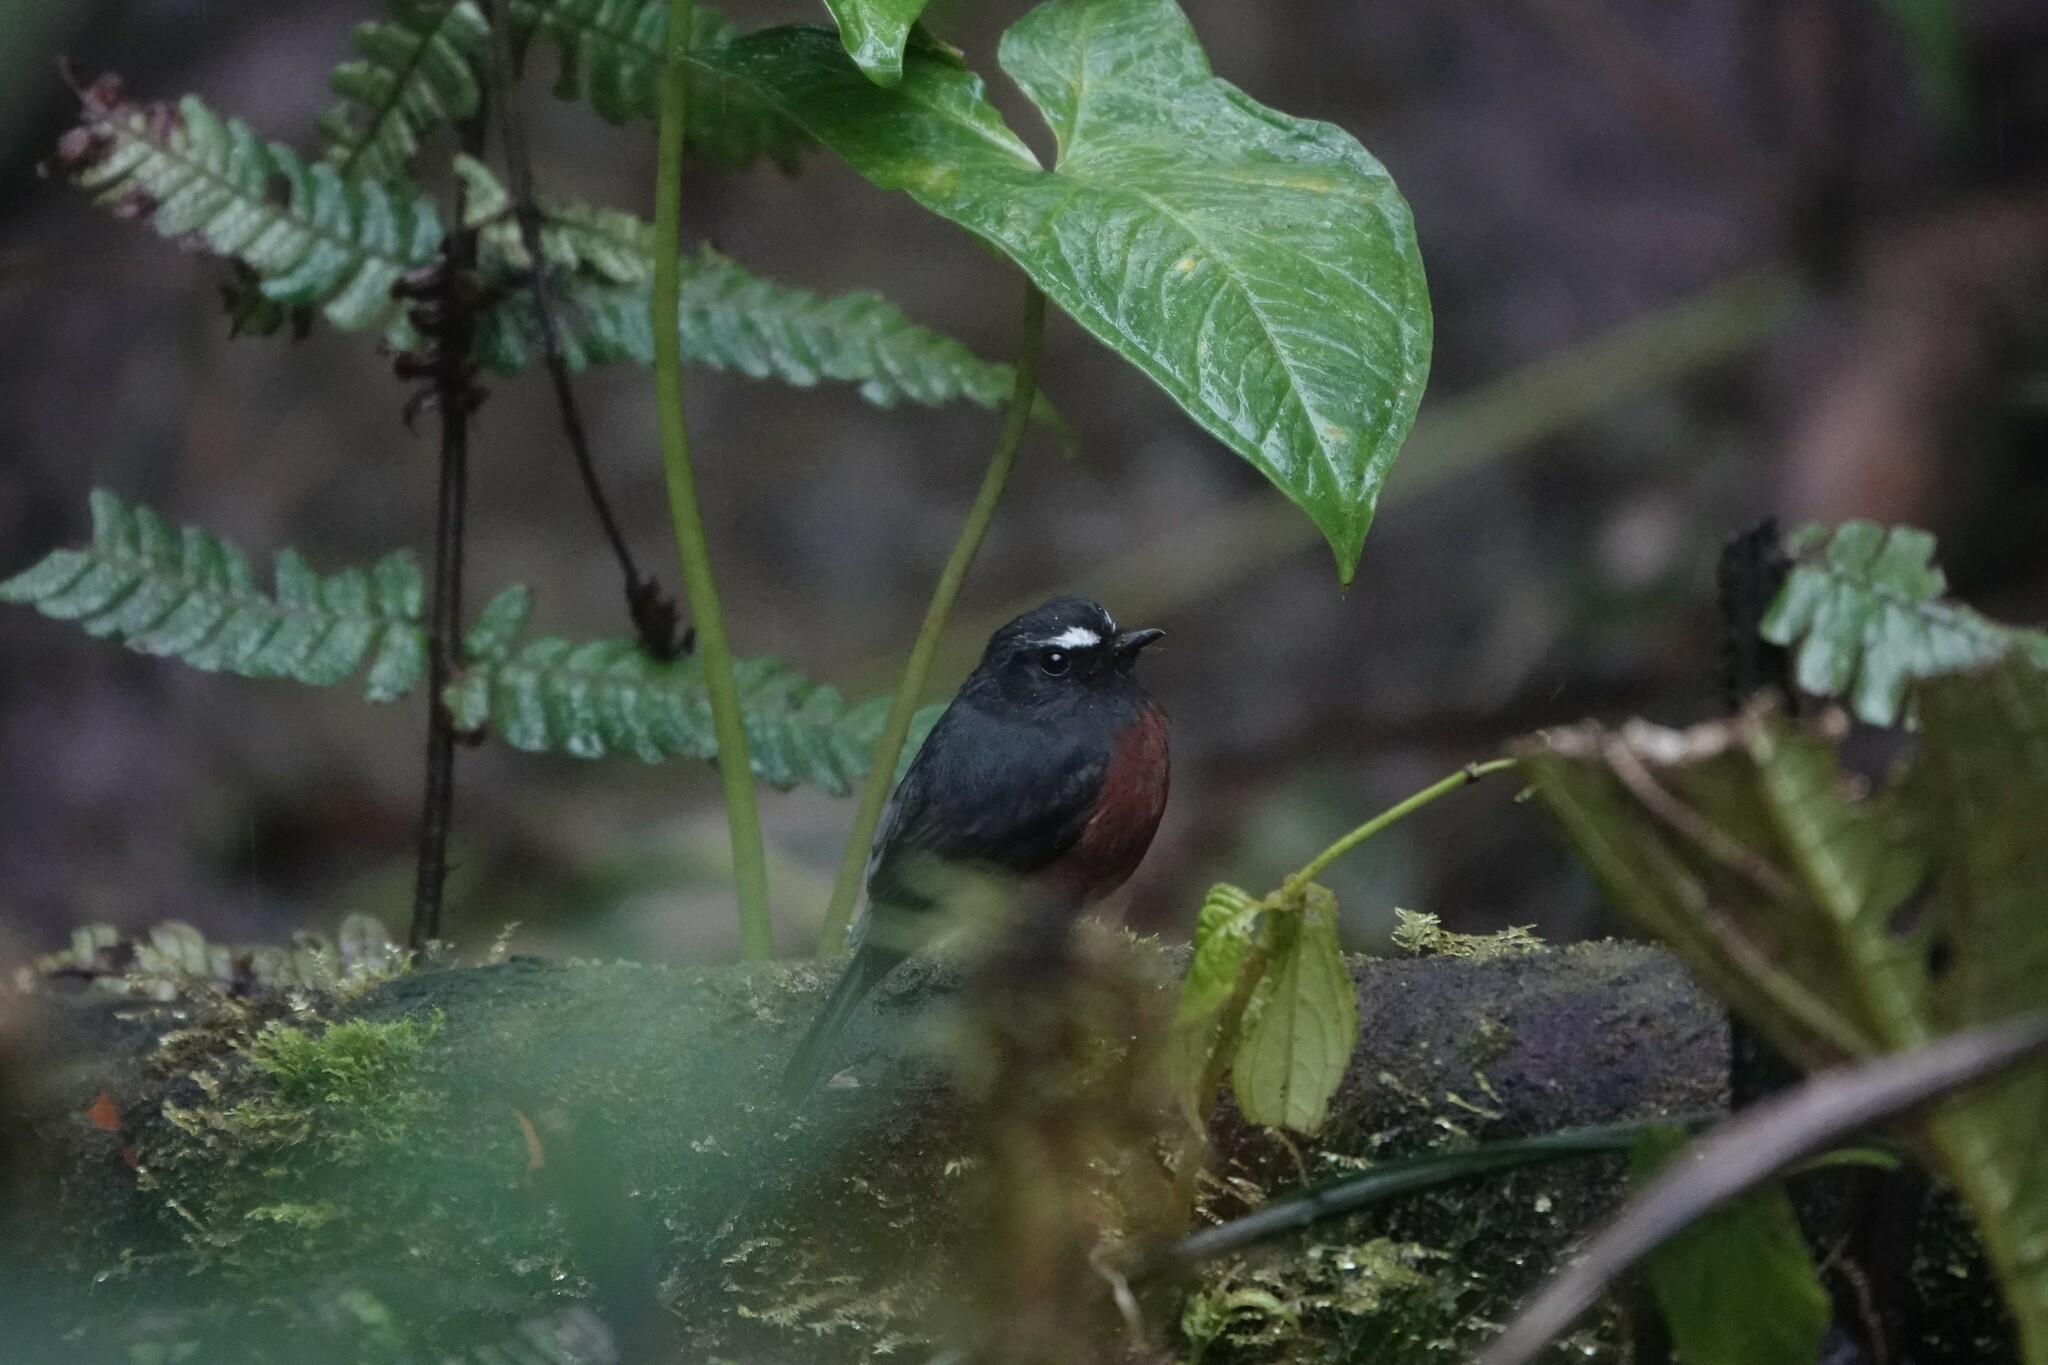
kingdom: Animalia
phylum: Chordata
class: Aves
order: Passeriformes
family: Tyrannidae
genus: Ochthoeca
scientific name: Ochthoeca cinnamomeiventris
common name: Slaty-backed chat-tyrant
